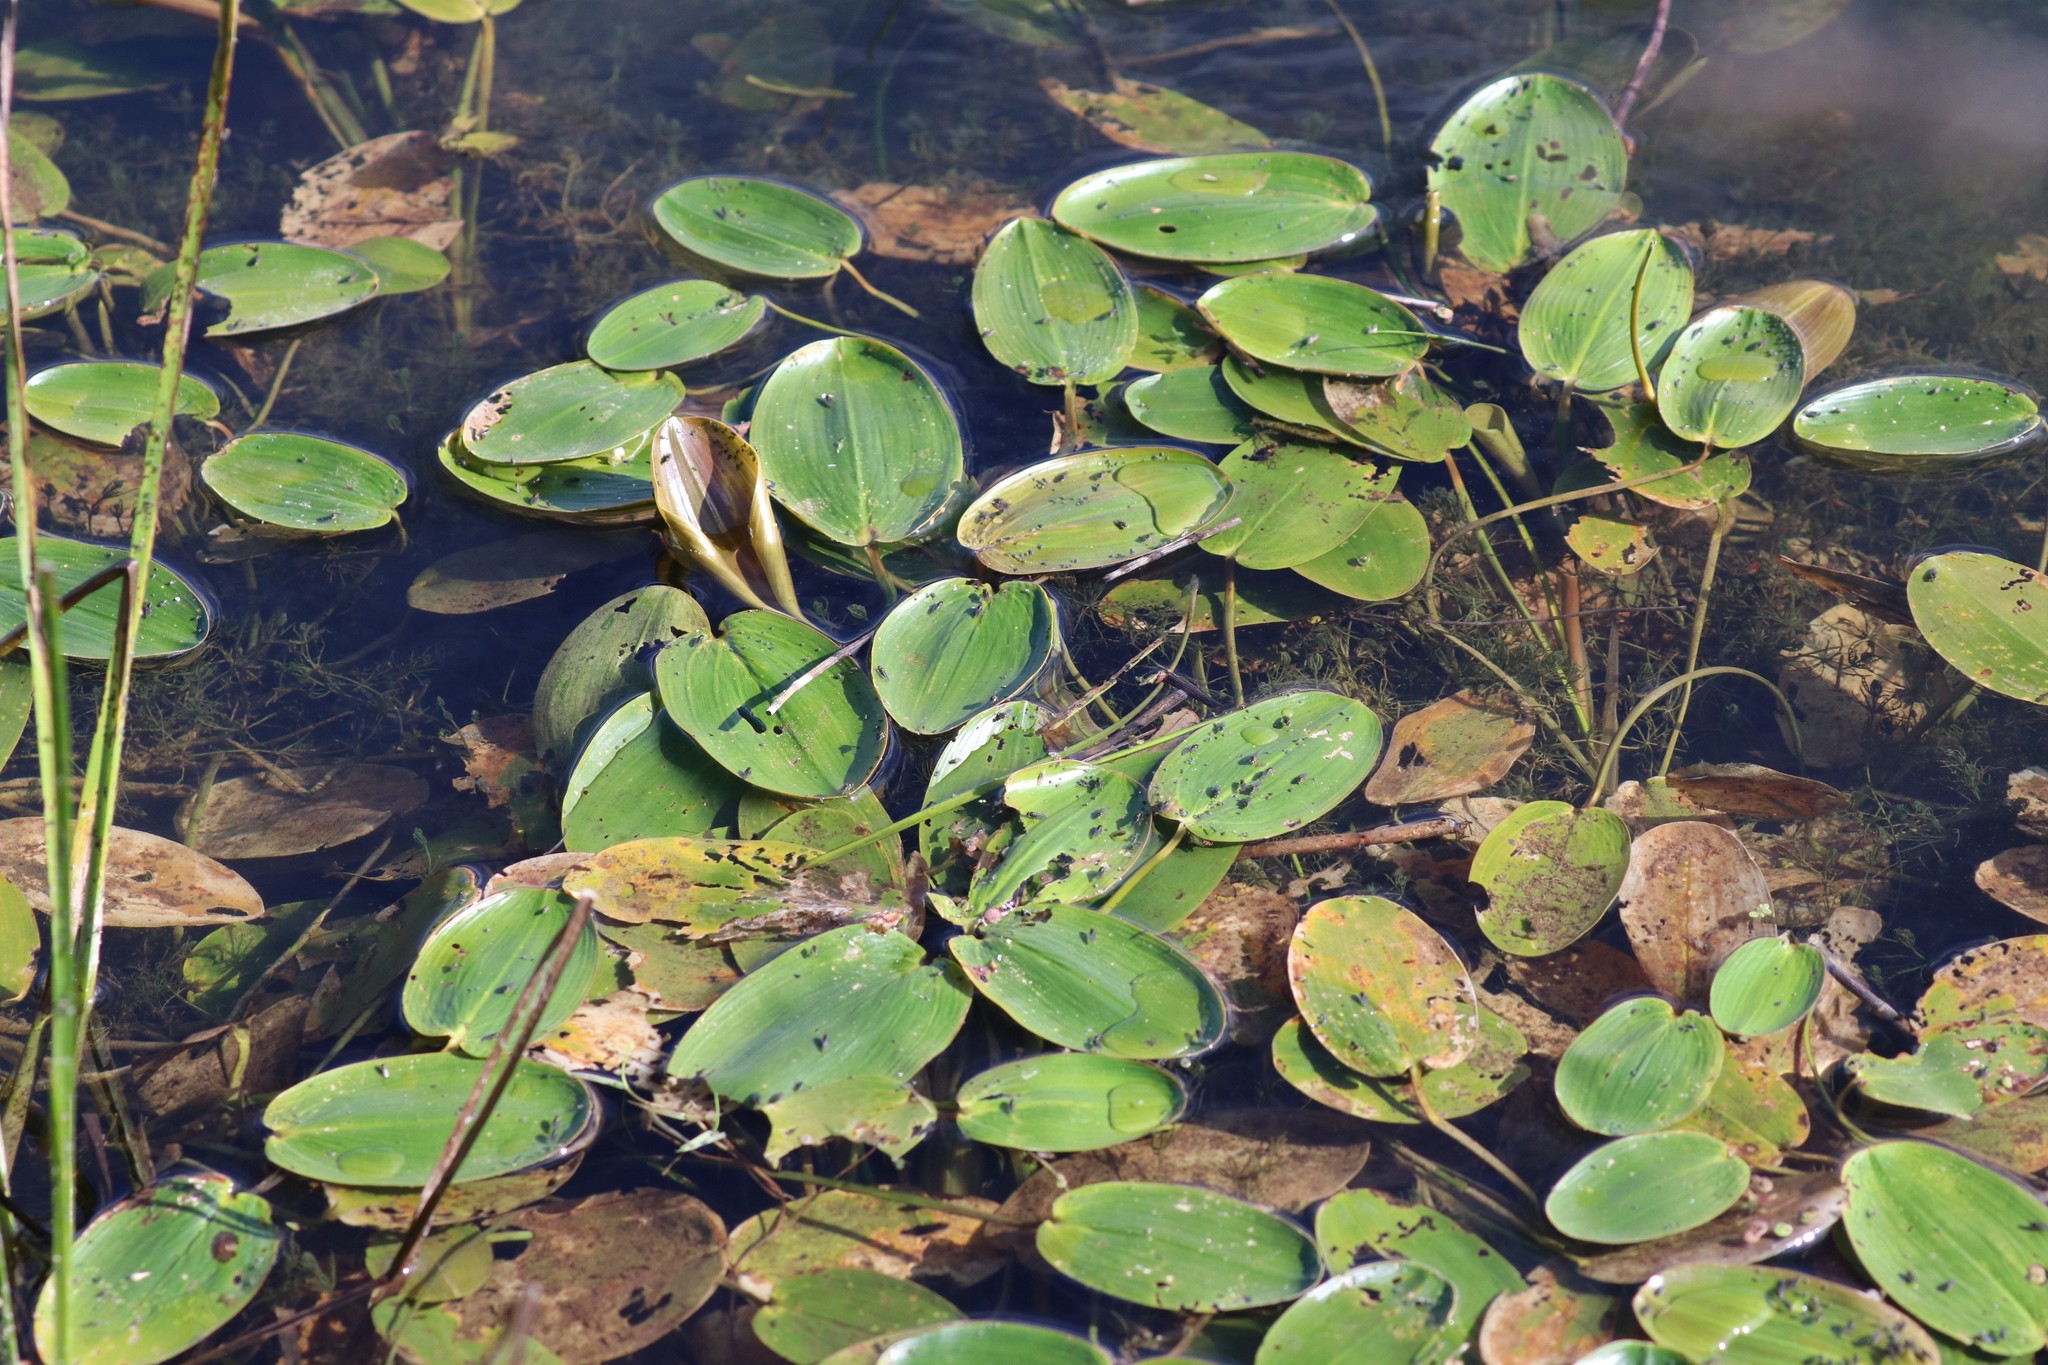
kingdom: Plantae
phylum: Tracheophyta
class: Liliopsida
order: Alismatales
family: Potamogetonaceae
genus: Potamogeton
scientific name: Potamogeton natans
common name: Broad-leaved pondweed
